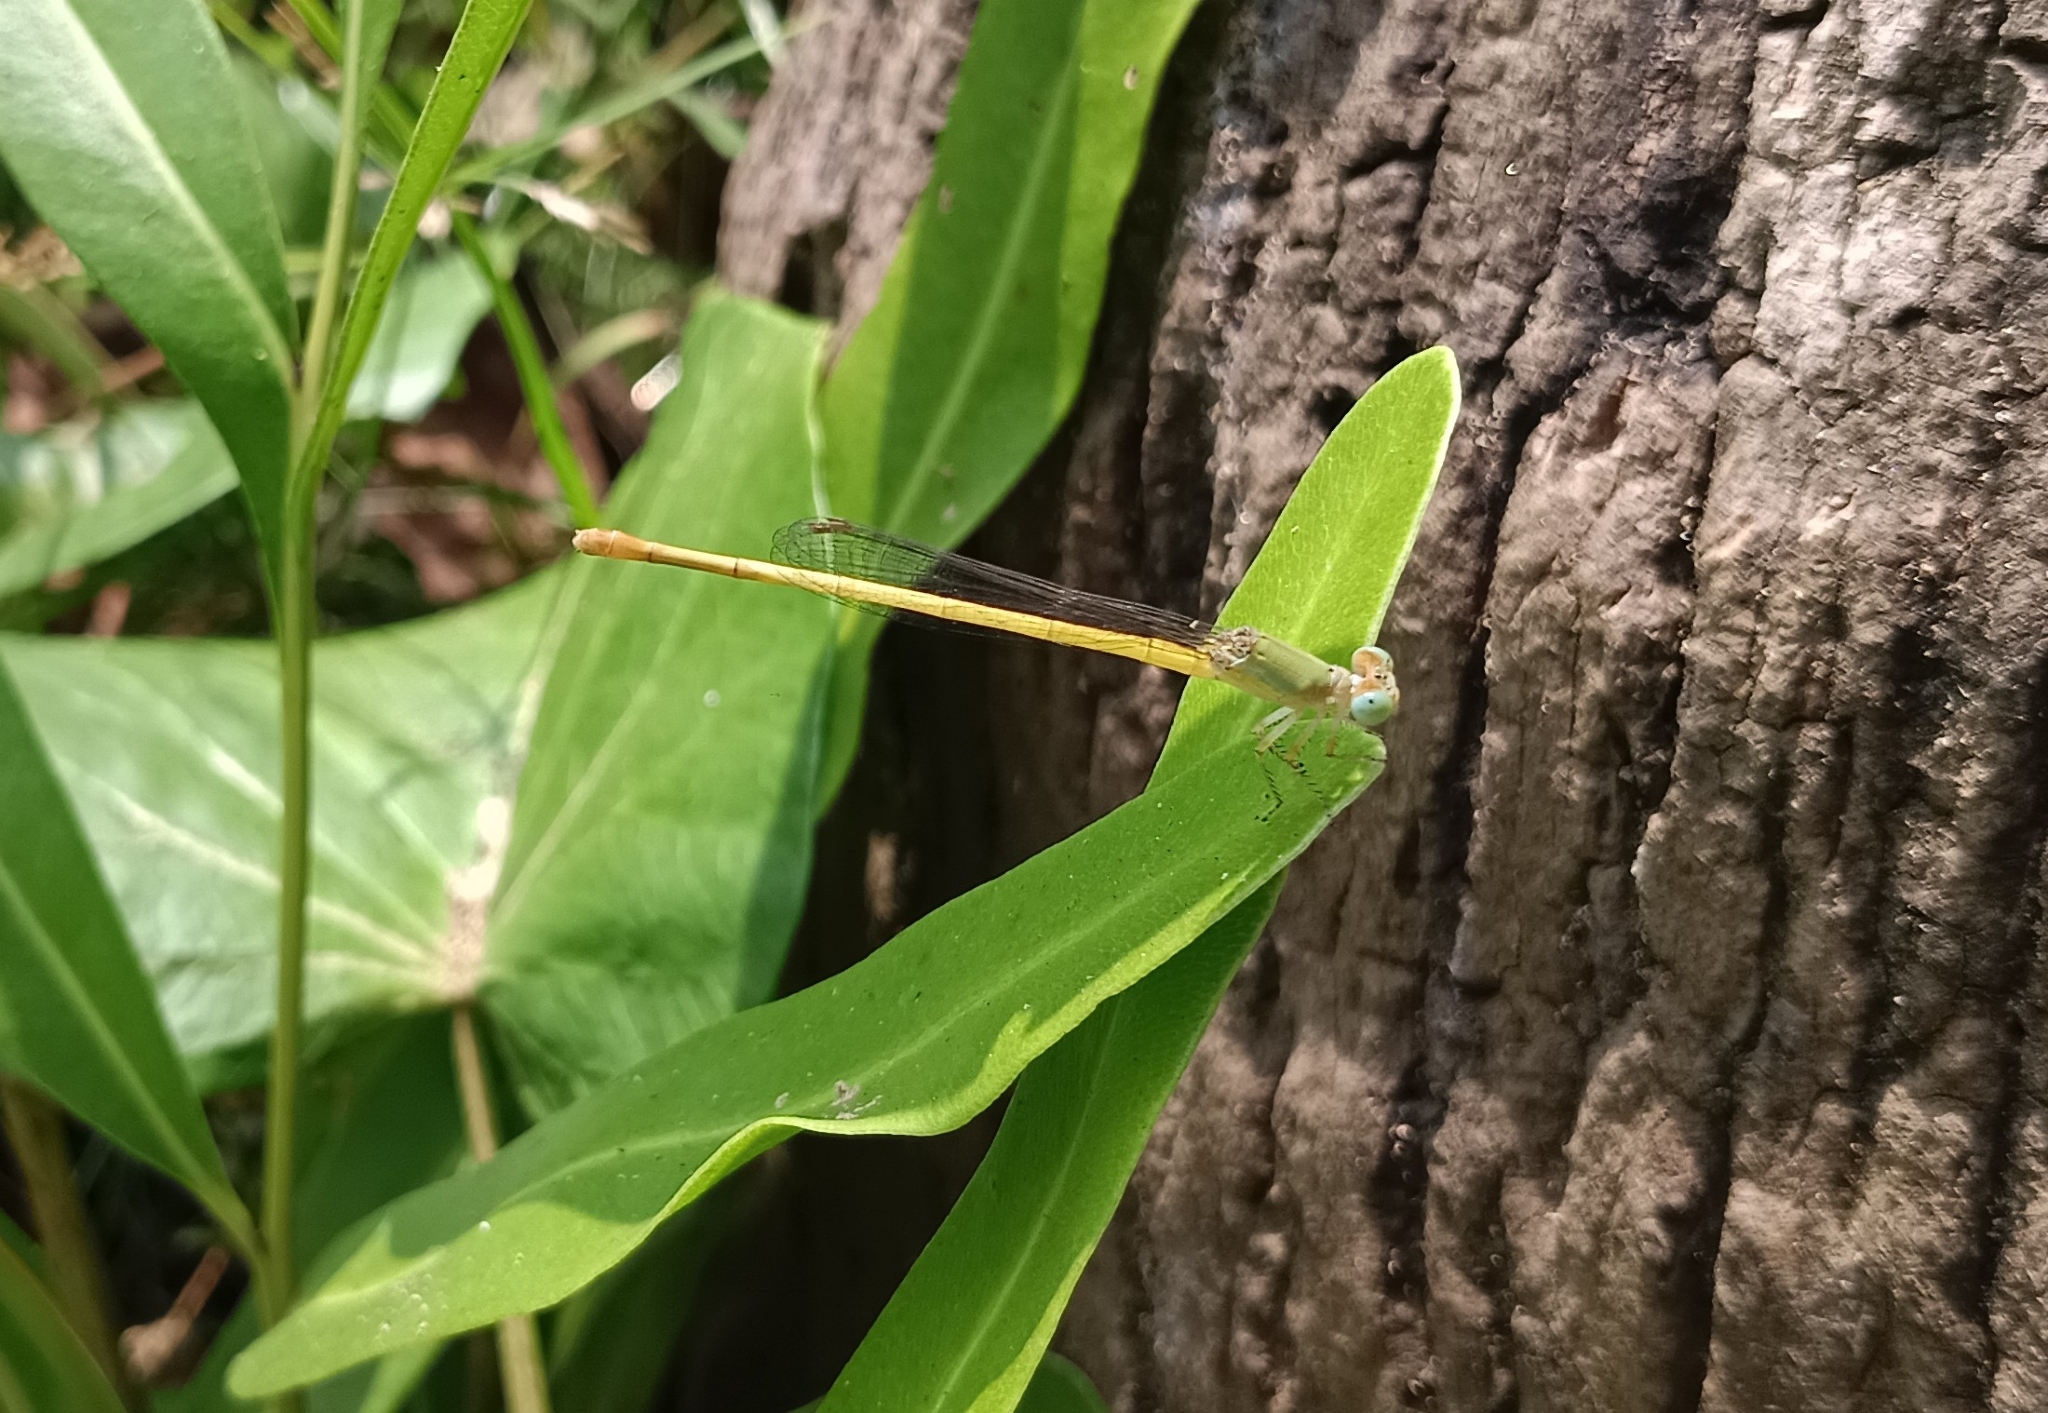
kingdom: Animalia
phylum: Arthropoda
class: Insecta
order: Odonata
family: Coenagrionidae
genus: Ceriagrion
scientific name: Ceriagrion coromandelianum
